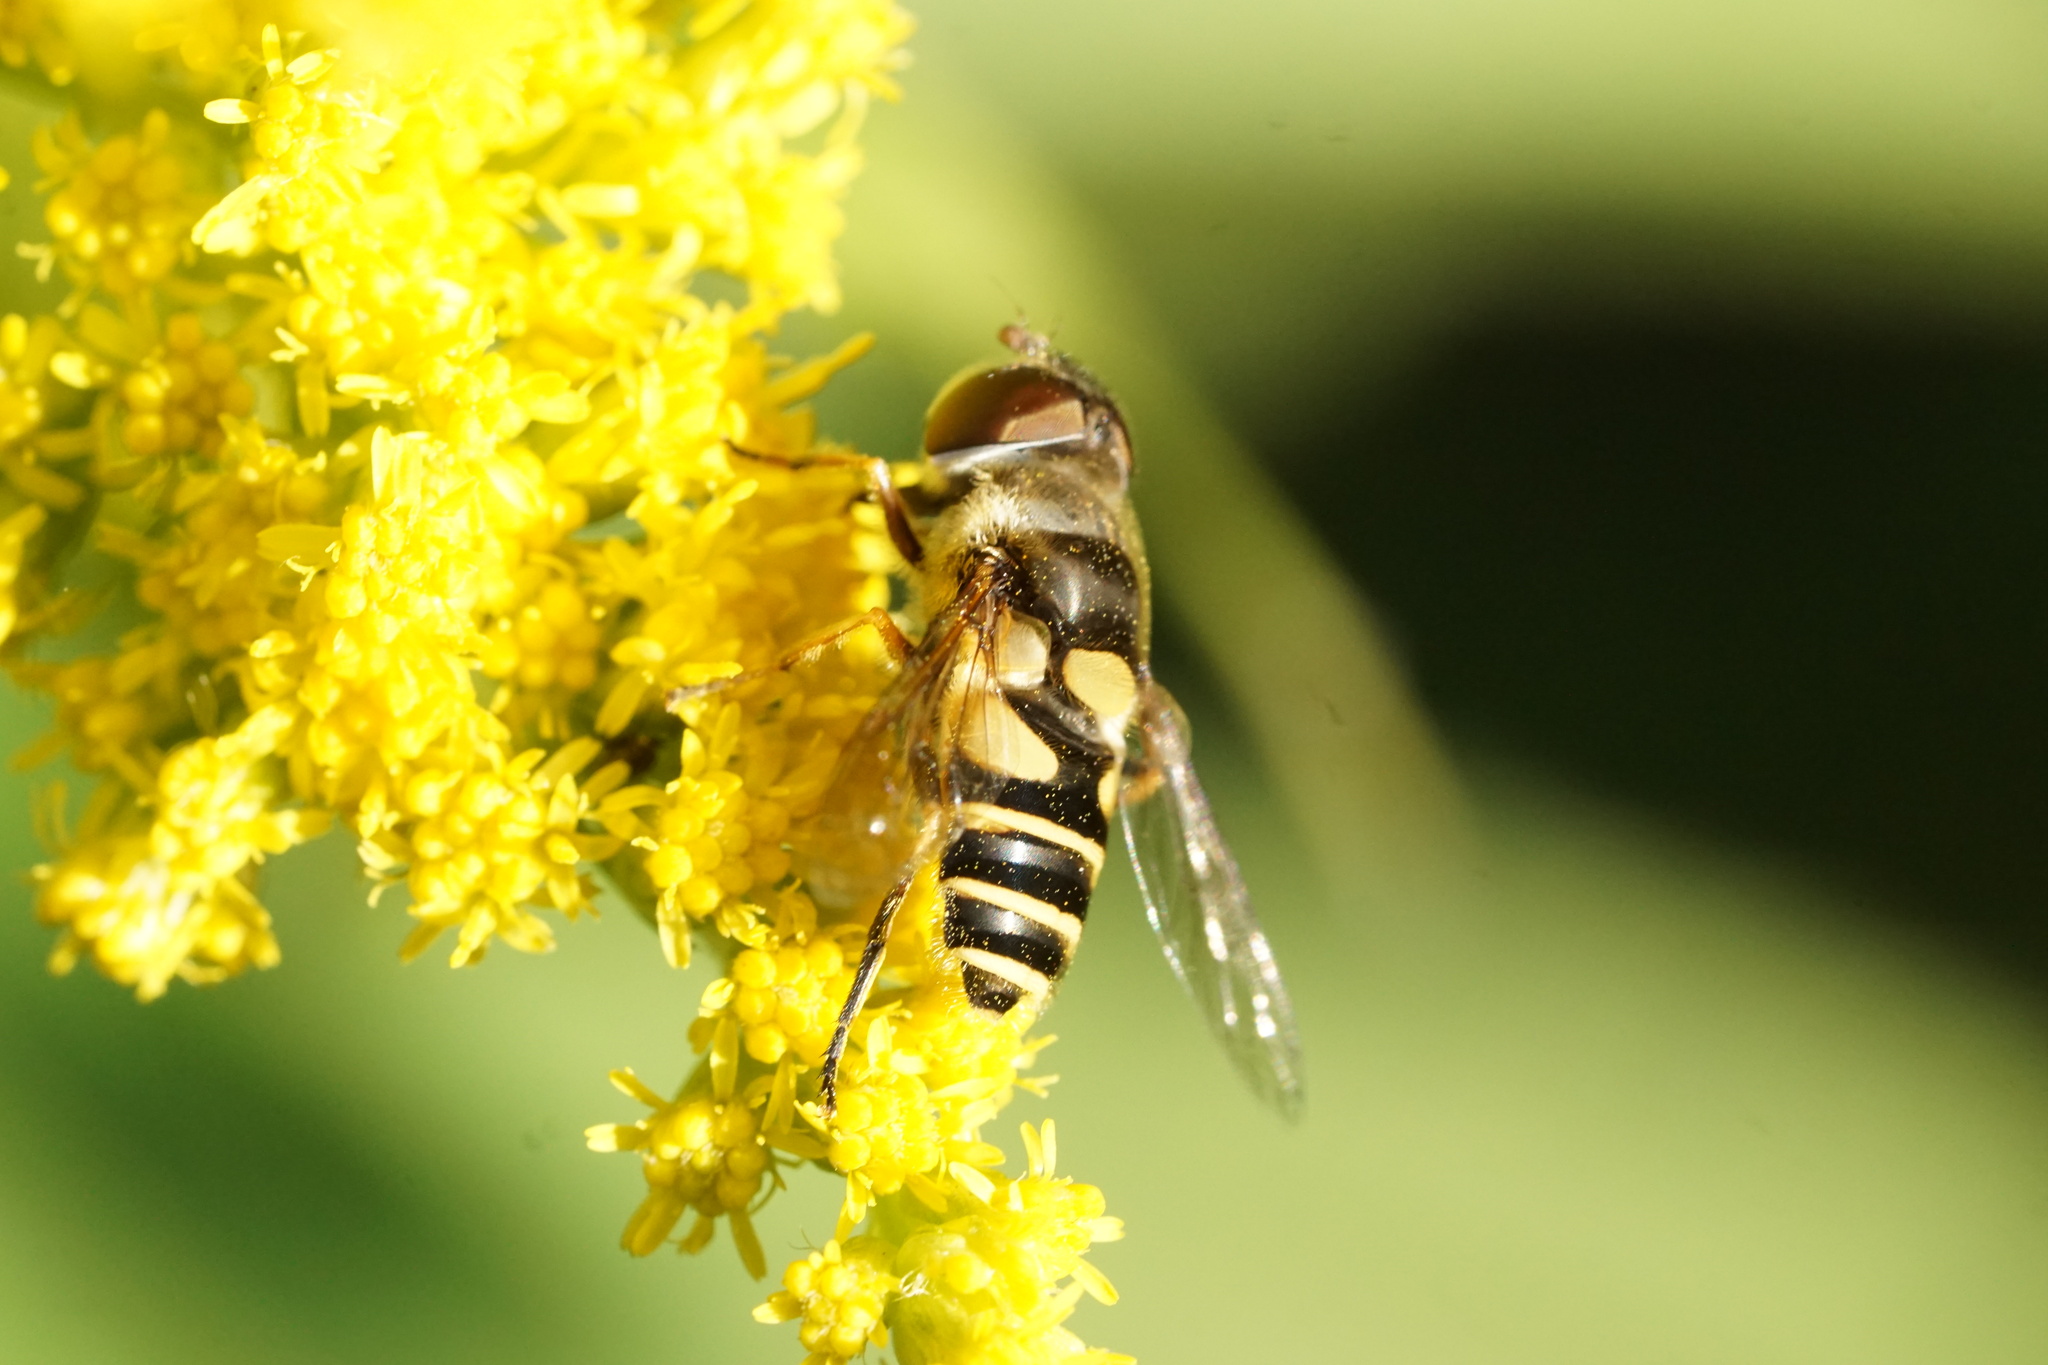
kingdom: Animalia
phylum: Arthropoda
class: Insecta
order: Diptera
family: Syrphidae
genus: Eristalis
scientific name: Eristalis transversa
